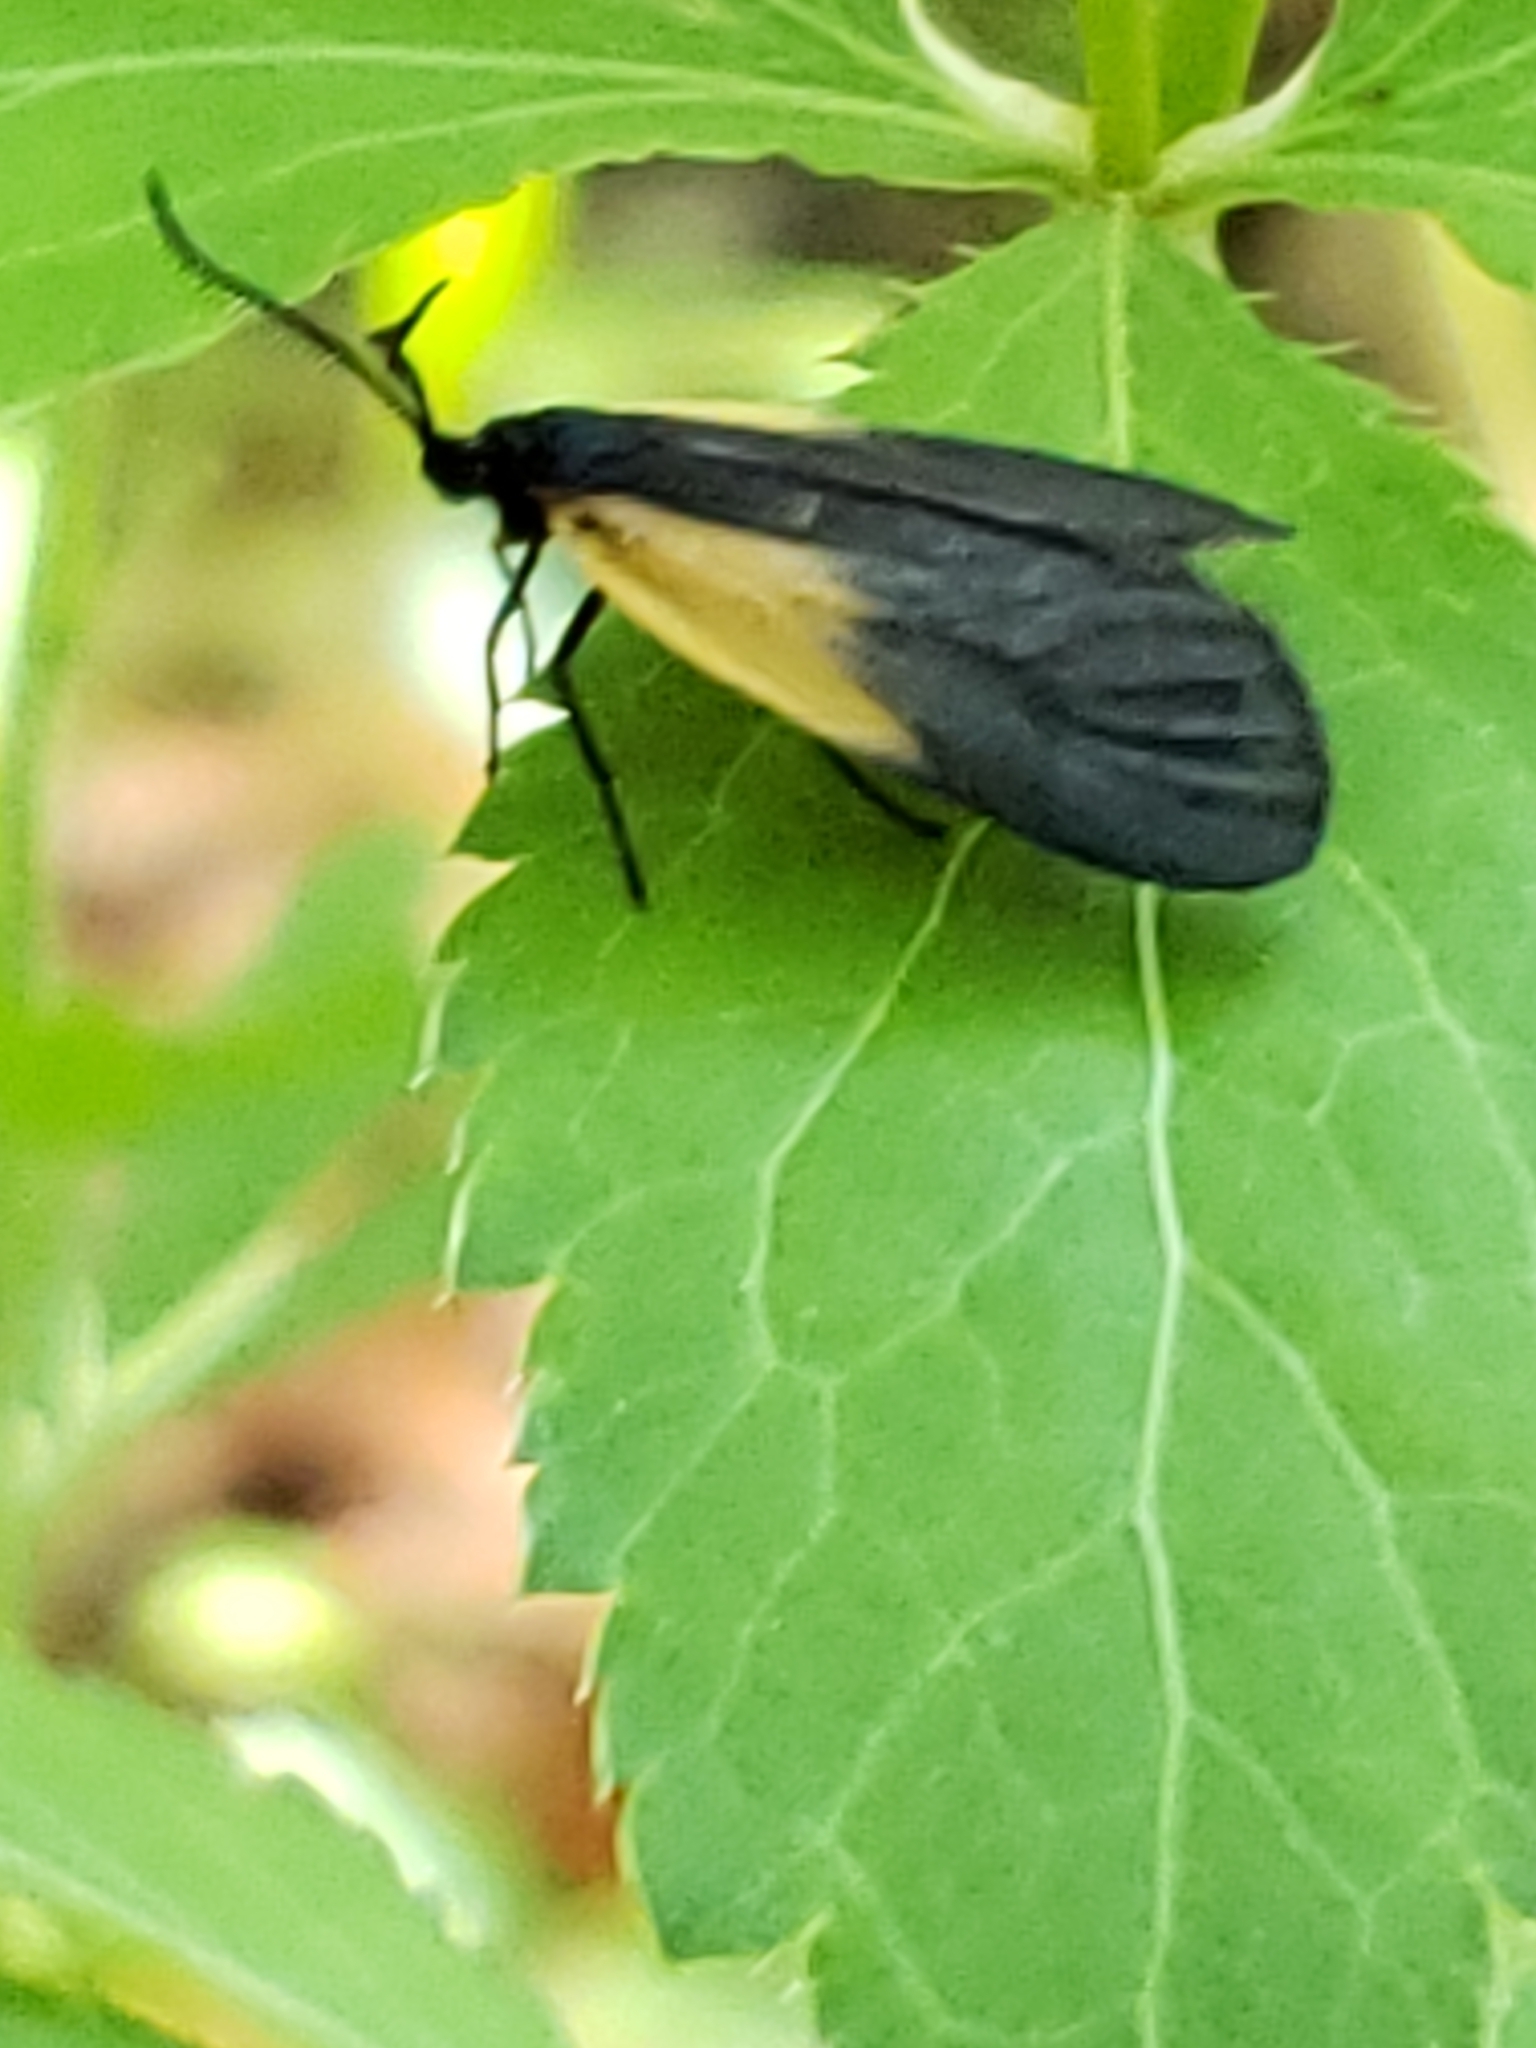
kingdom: Animalia
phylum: Arthropoda
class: Insecta
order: Lepidoptera
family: Zygaenidae
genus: Malthaca
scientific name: Malthaca dimidiata
